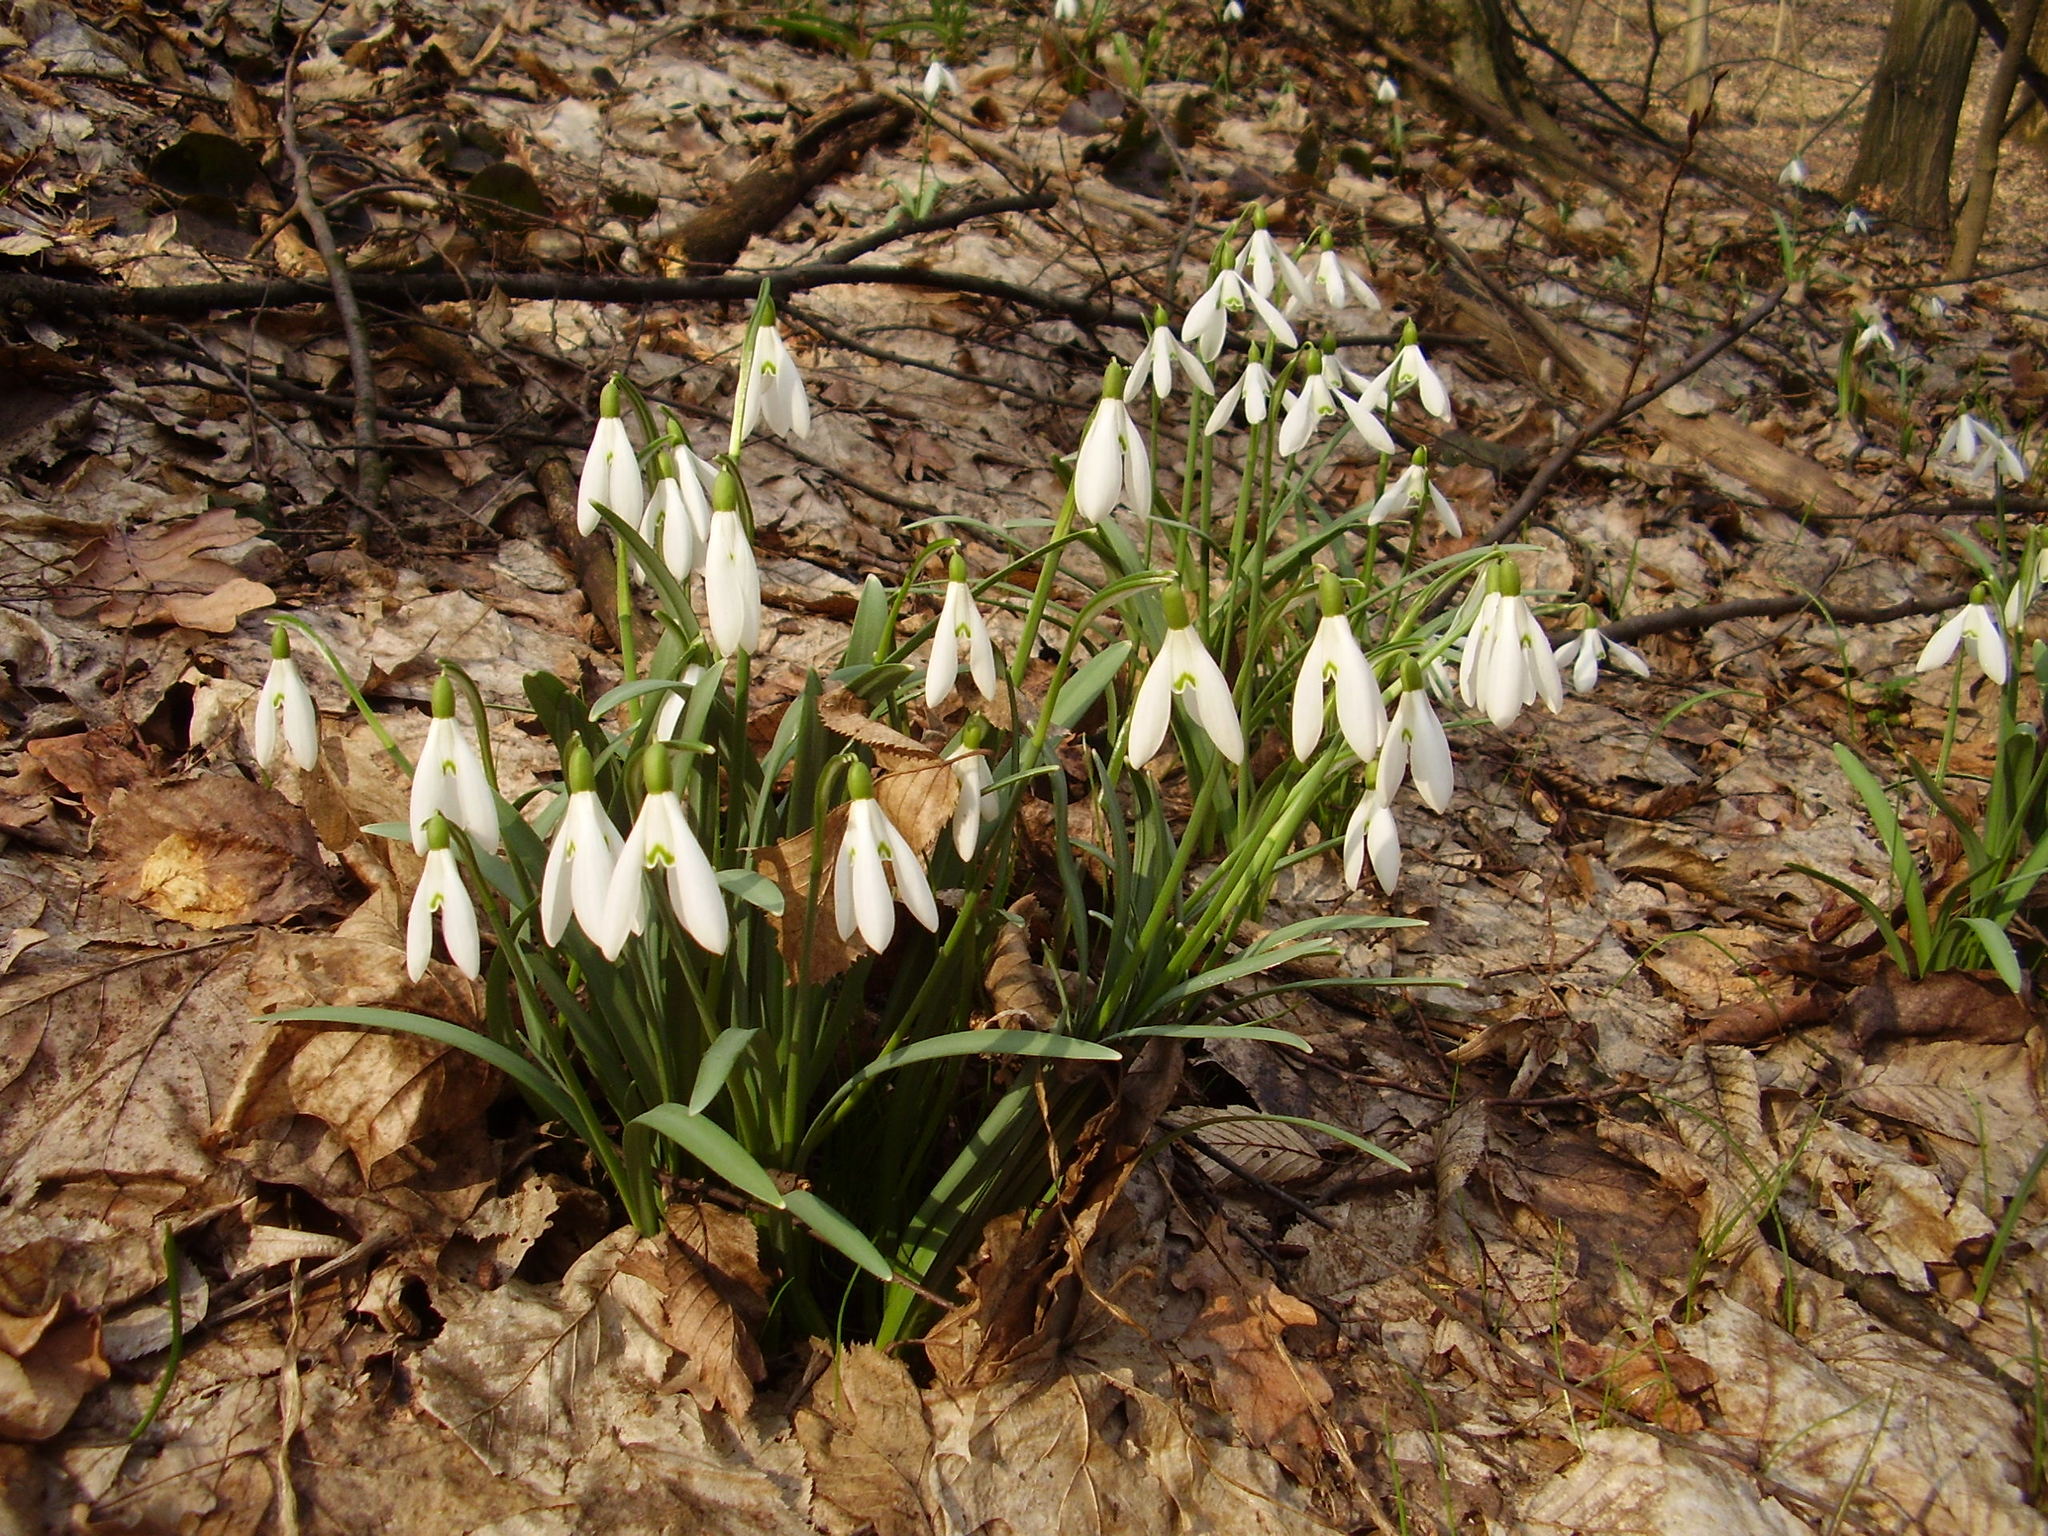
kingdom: Plantae
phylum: Tracheophyta
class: Liliopsida
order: Asparagales
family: Amaryllidaceae
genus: Galanthus
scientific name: Galanthus nivalis
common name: Snowdrop
